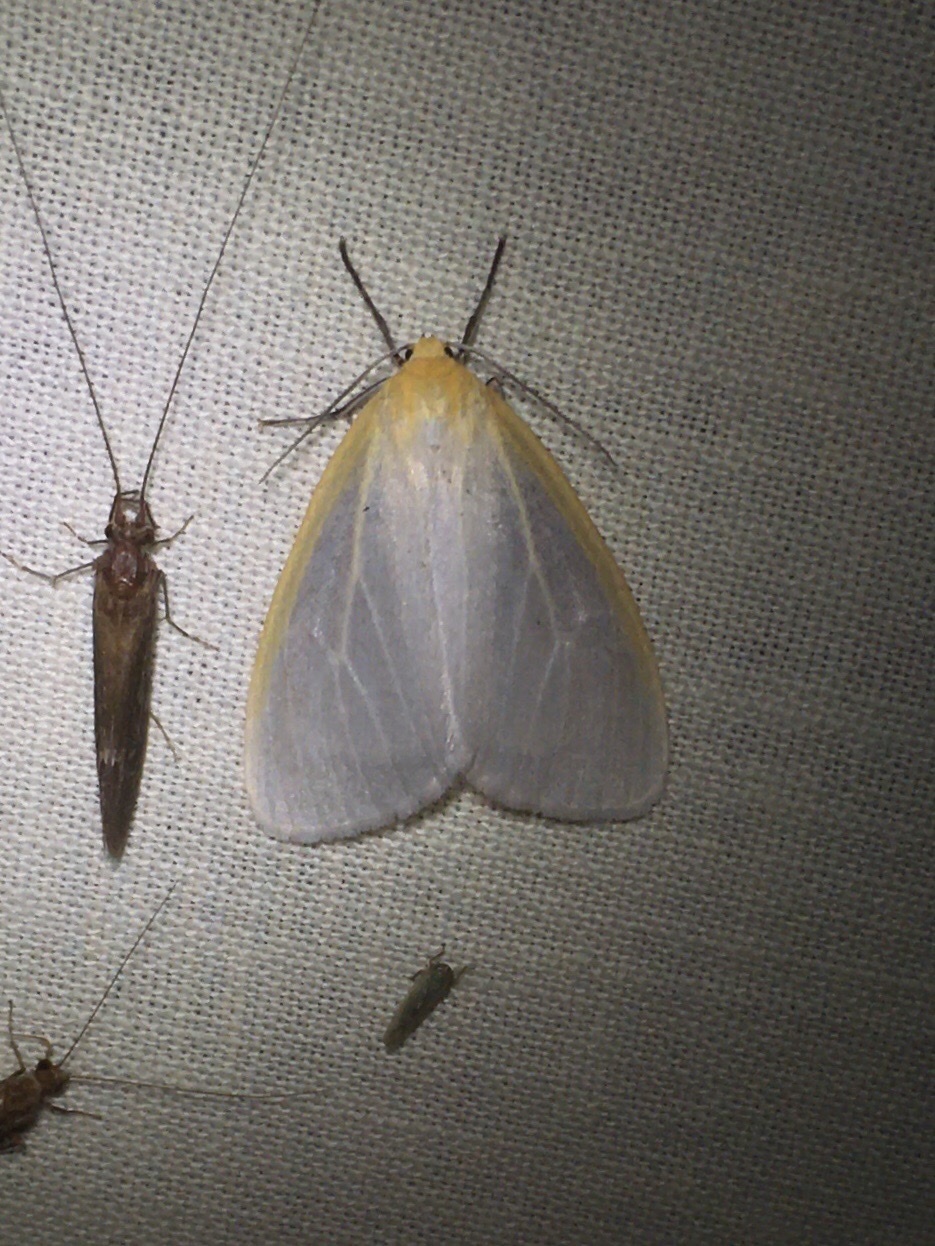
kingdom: Animalia
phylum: Arthropoda
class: Insecta
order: Lepidoptera
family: Erebidae
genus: Cycnia
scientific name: Cycnia tenera
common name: Delicate cycnia moth
